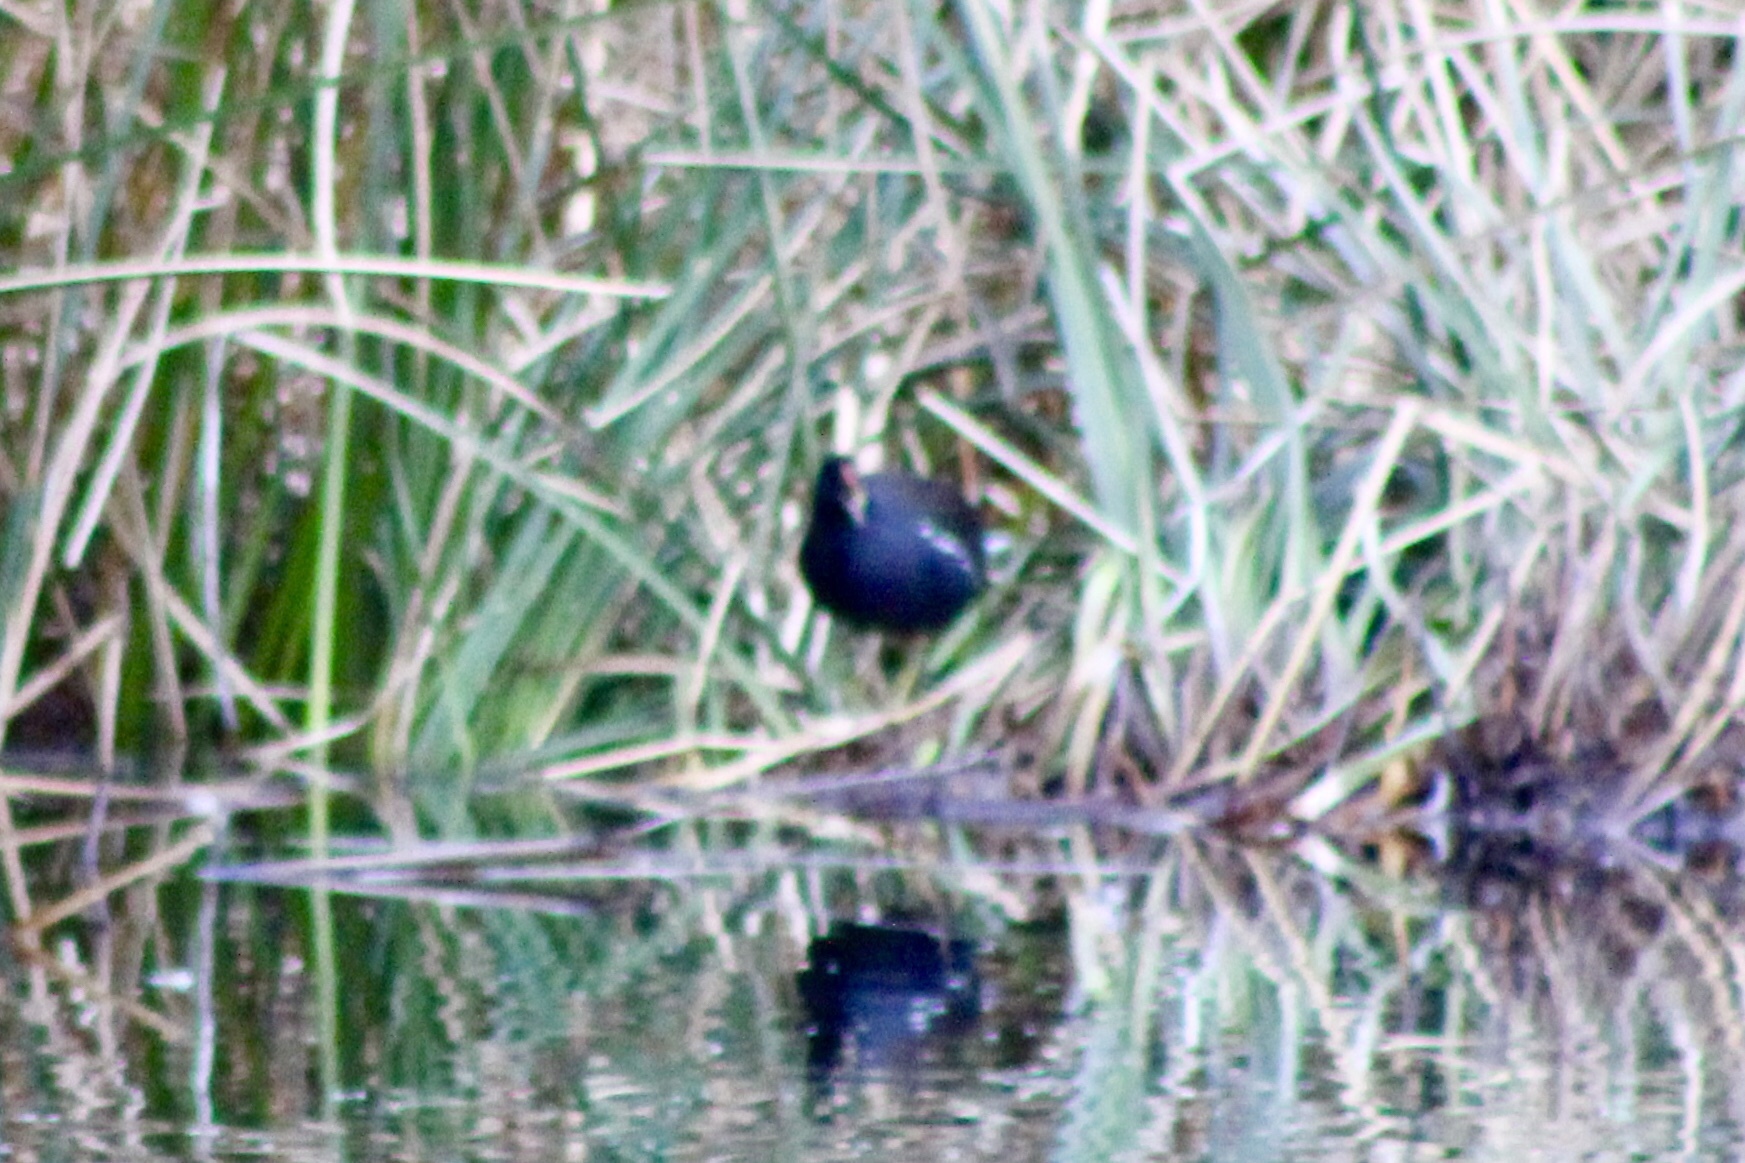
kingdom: Animalia
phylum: Chordata
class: Aves
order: Gruiformes
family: Rallidae
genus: Gallinula
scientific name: Gallinula chloropus
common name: Common moorhen
